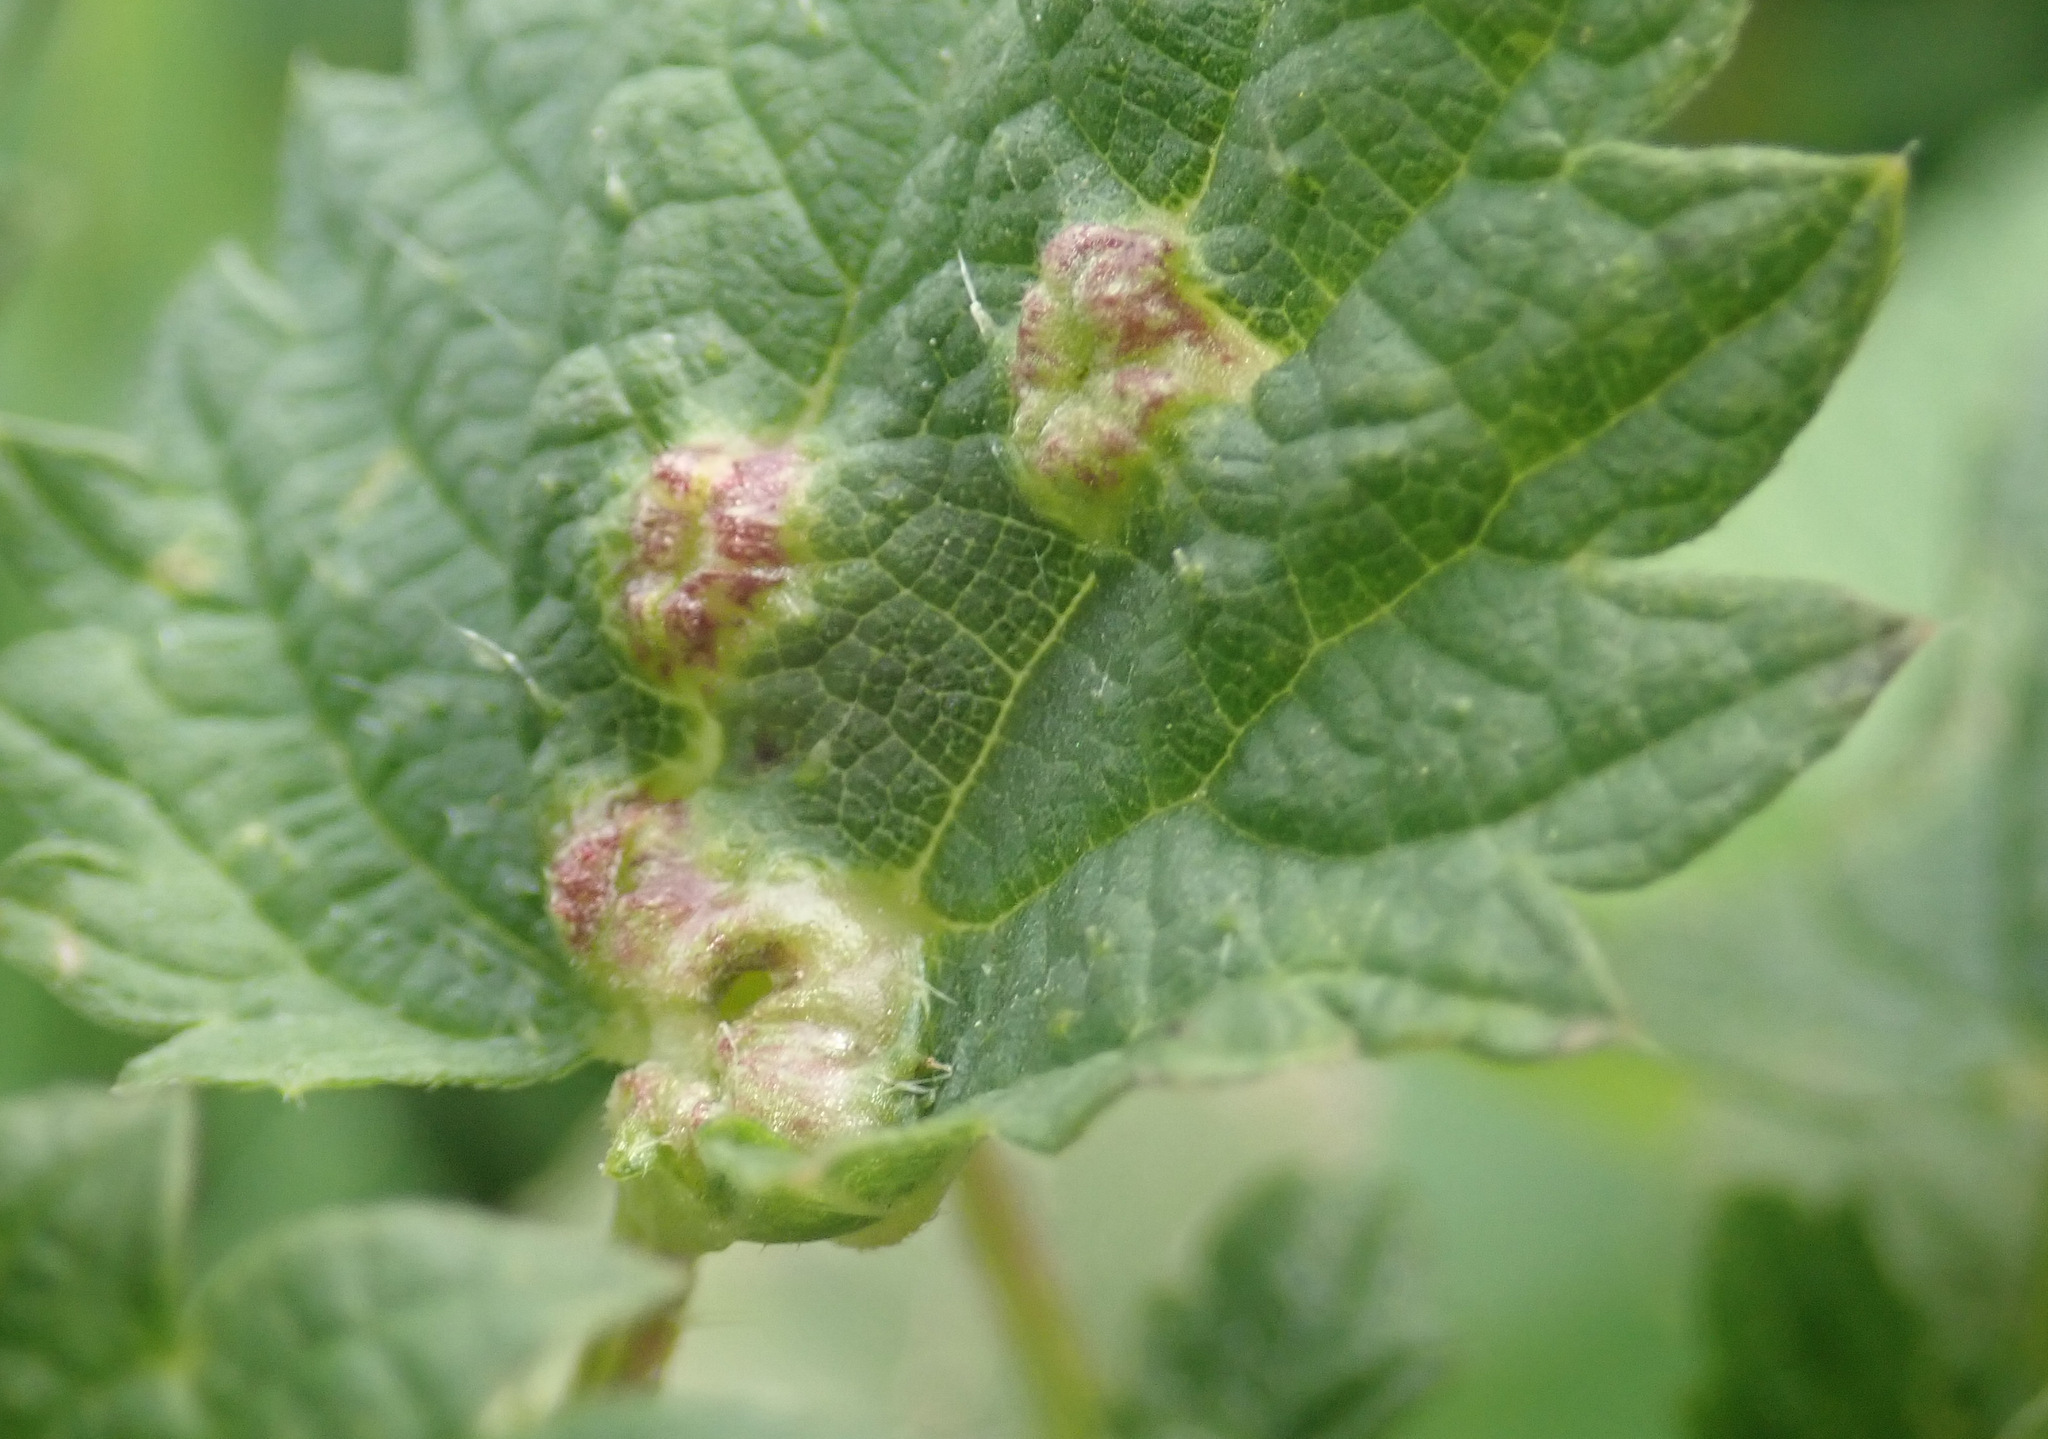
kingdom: Animalia
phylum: Arthropoda
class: Insecta
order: Diptera
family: Cecidomyiidae
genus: Dasineura
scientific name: Dasineura urticae
